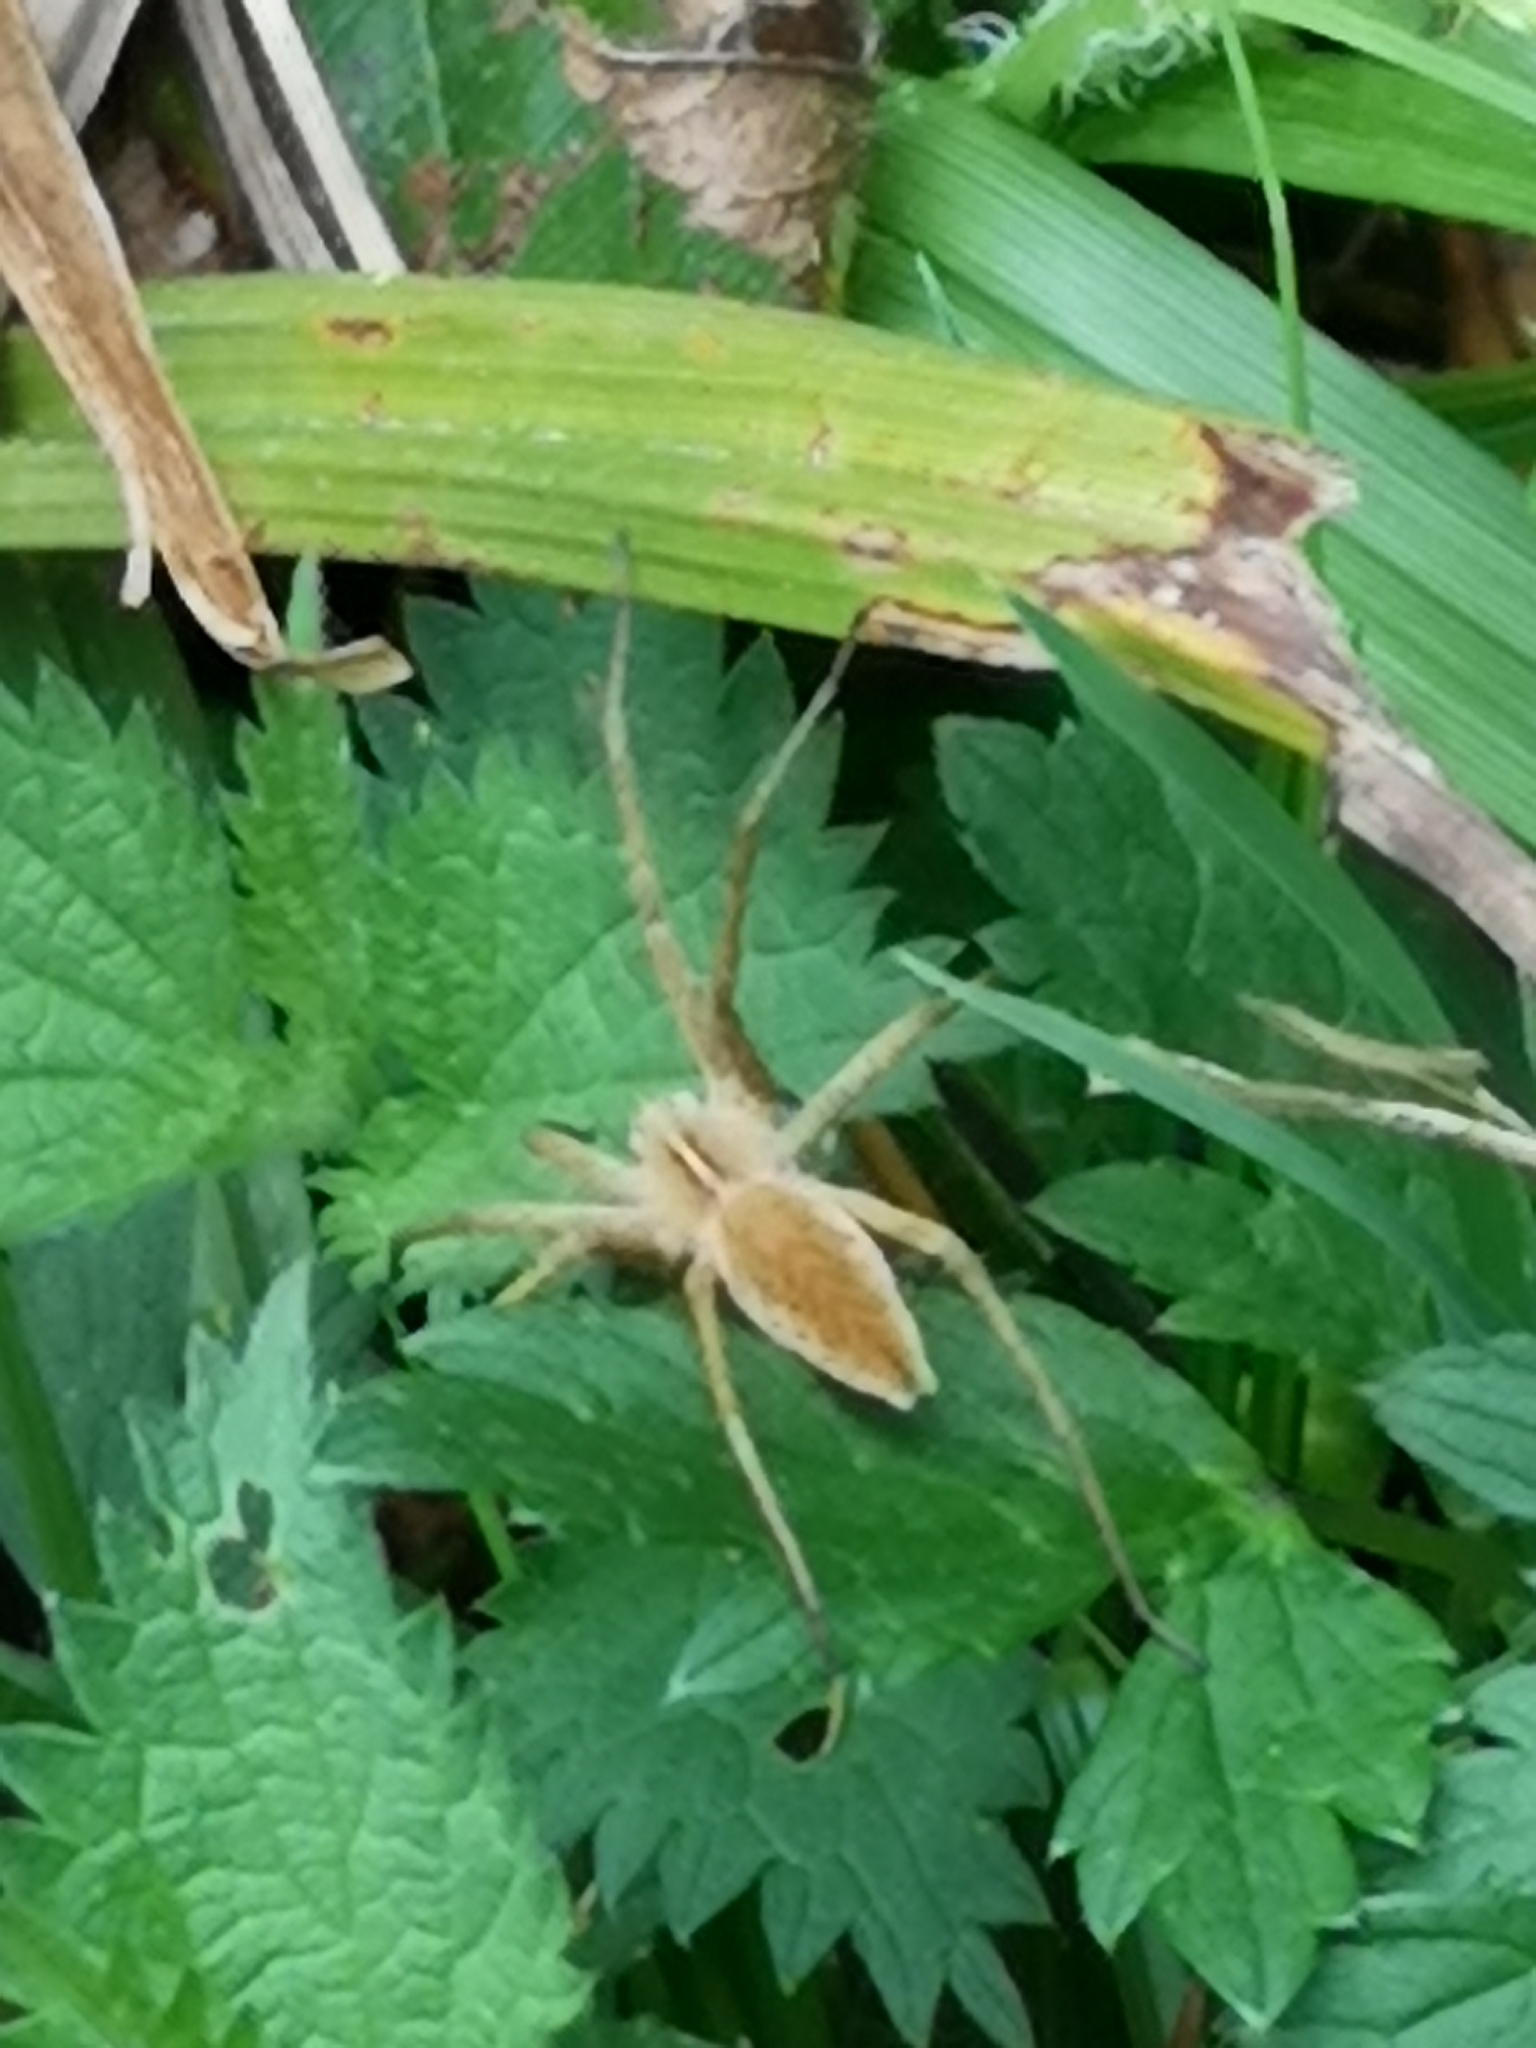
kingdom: Animalia
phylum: Arthropoda
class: Arachnida
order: Araneae
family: Pisauridae
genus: Pisaura
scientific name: Pisaura mirabilis
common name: Tent spider
